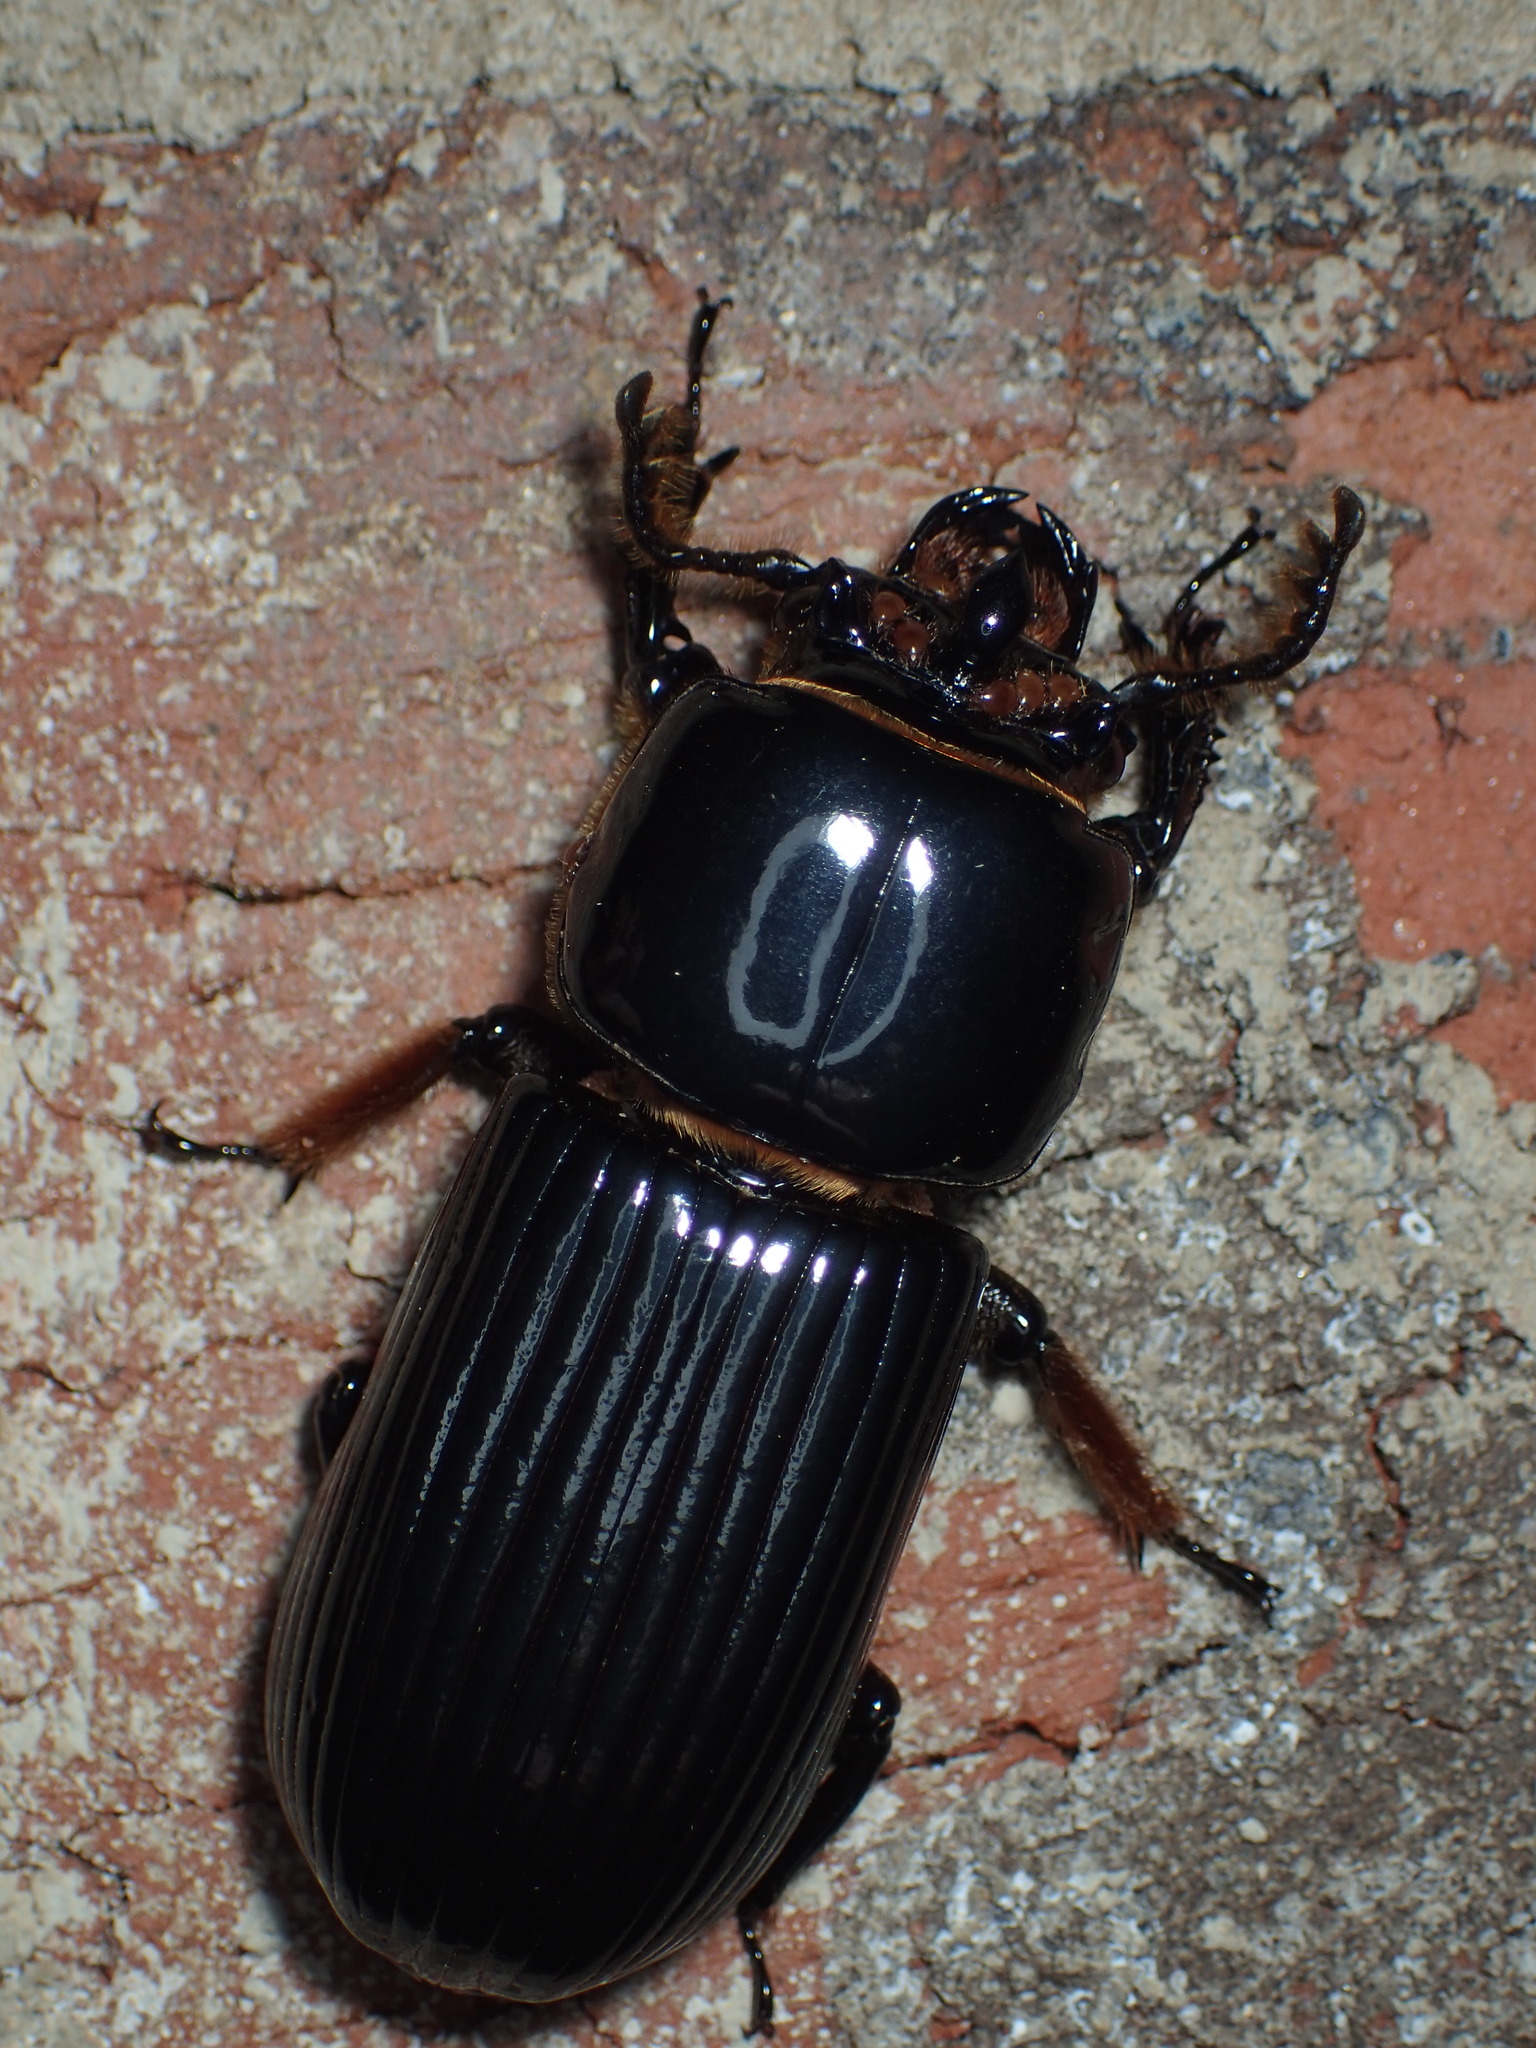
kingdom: Animalia
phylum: Arthropoda
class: Insecta
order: Coleoptera
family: Passalidae
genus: Odontotaenius
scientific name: Odontotaenius disjunctus
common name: Patent leather beetle
